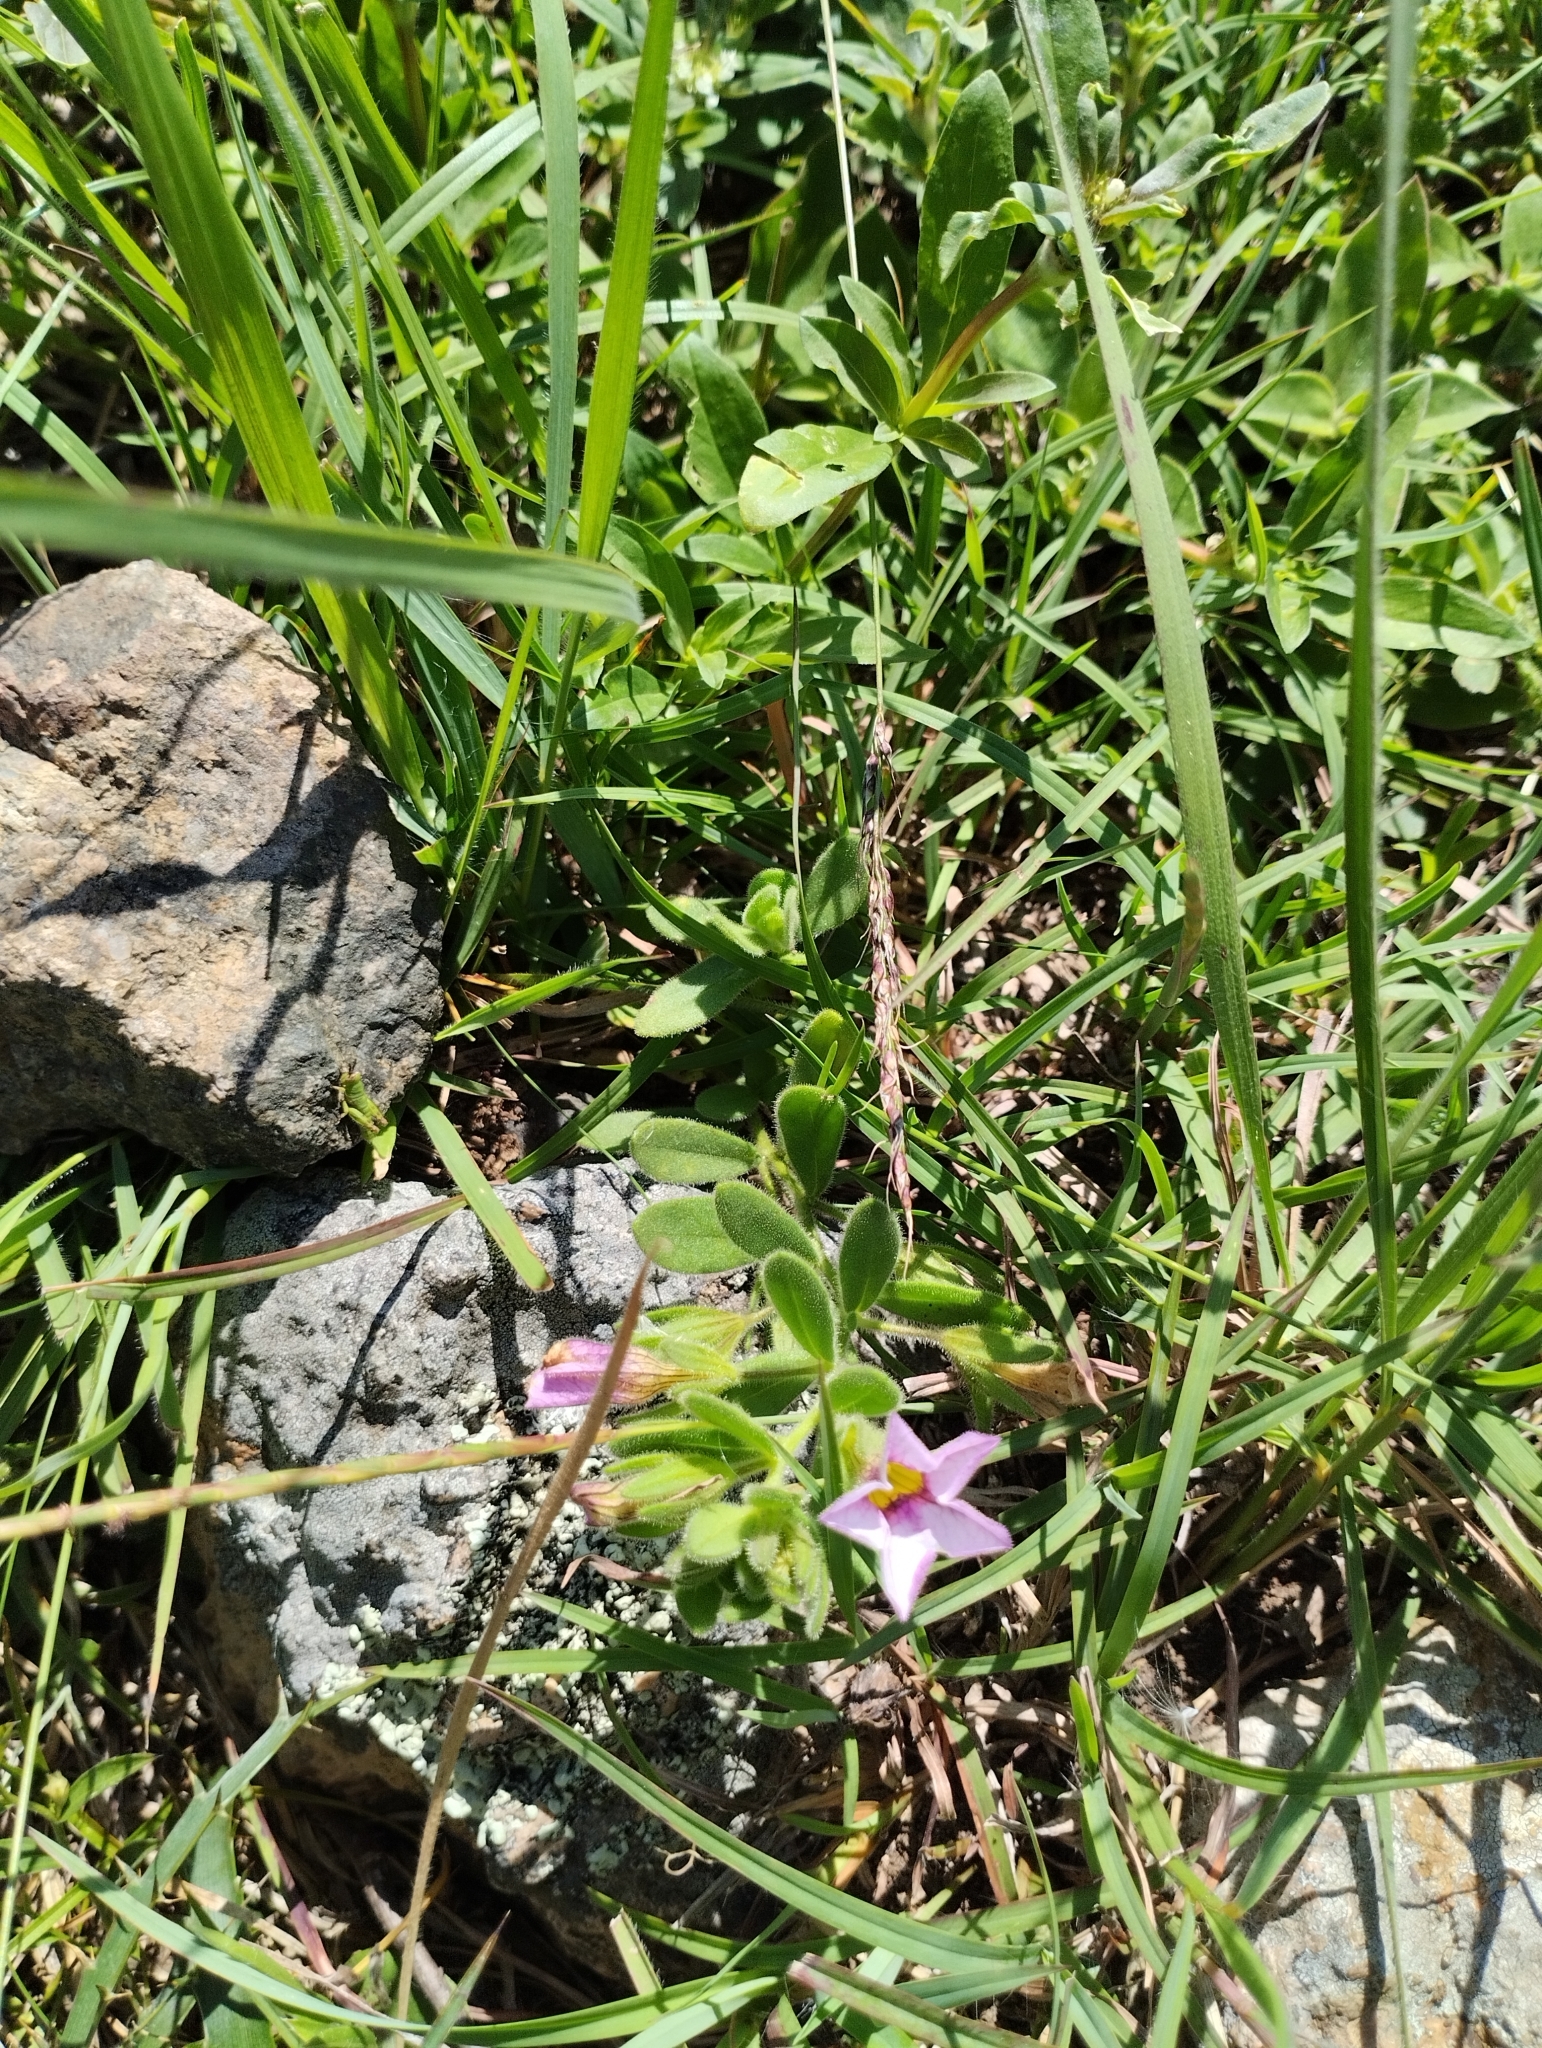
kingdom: Plantae
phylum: Tracheophyta
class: Magnoliopsida
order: Solanales
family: Solanaceae
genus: Calibrachoa
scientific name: Calibrachoa calycina
